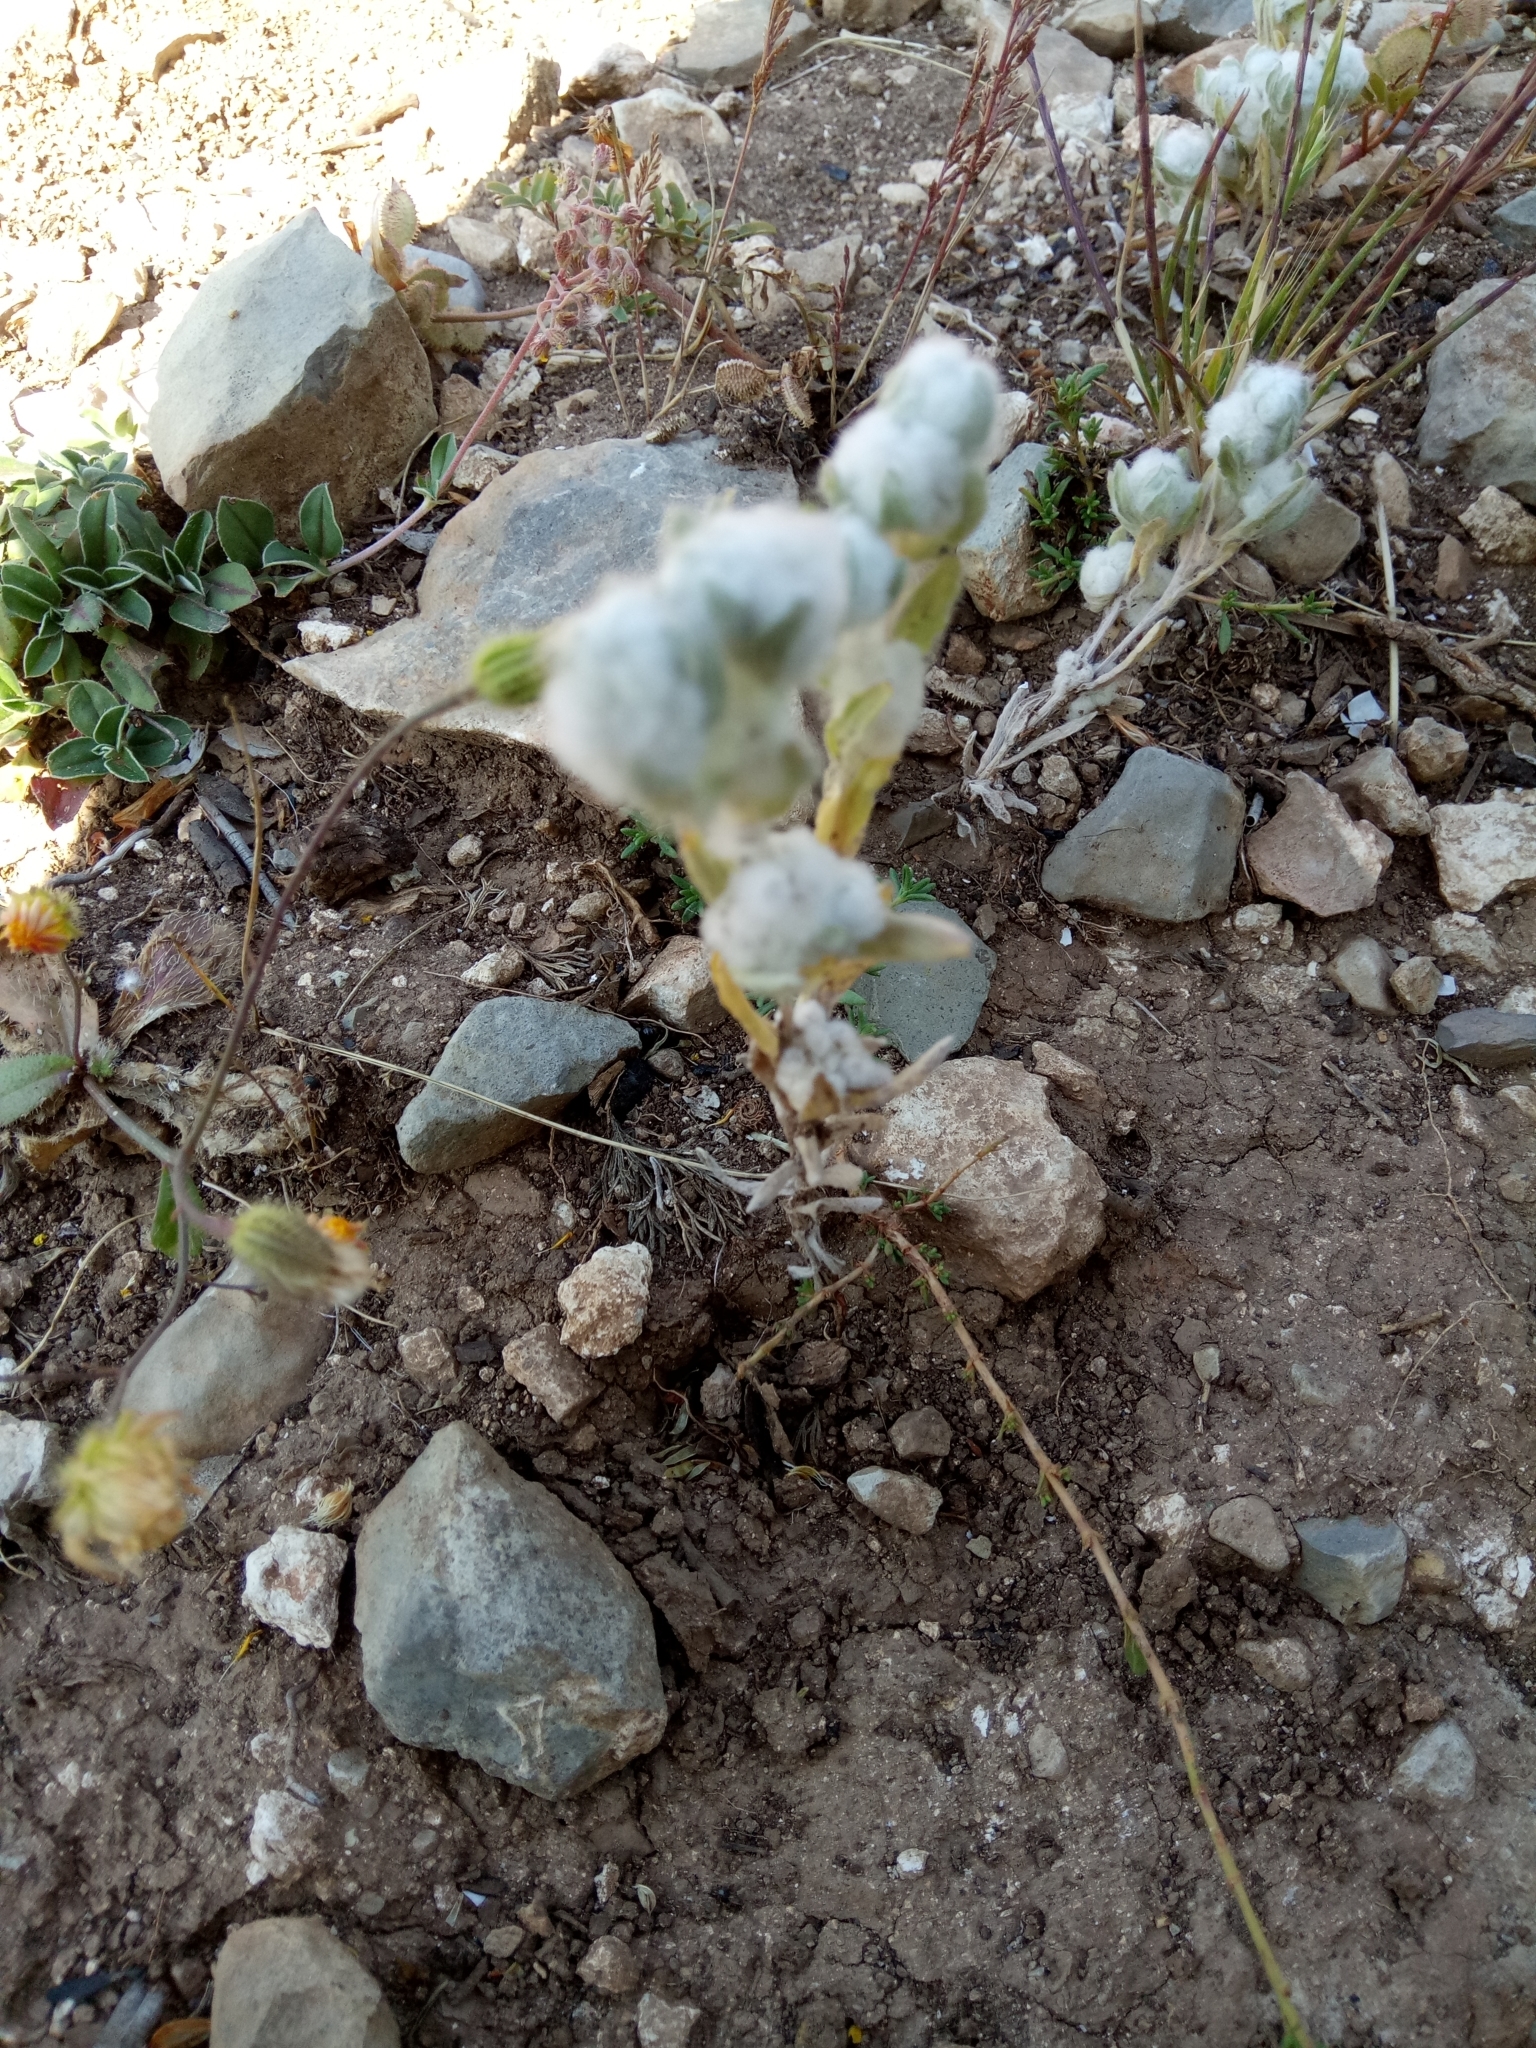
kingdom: Plantae
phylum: Tracheophyta
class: Magnoliopsida
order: Asterales
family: Asteraceae
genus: Bombycilaena
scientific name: Bombycilaena discolor
